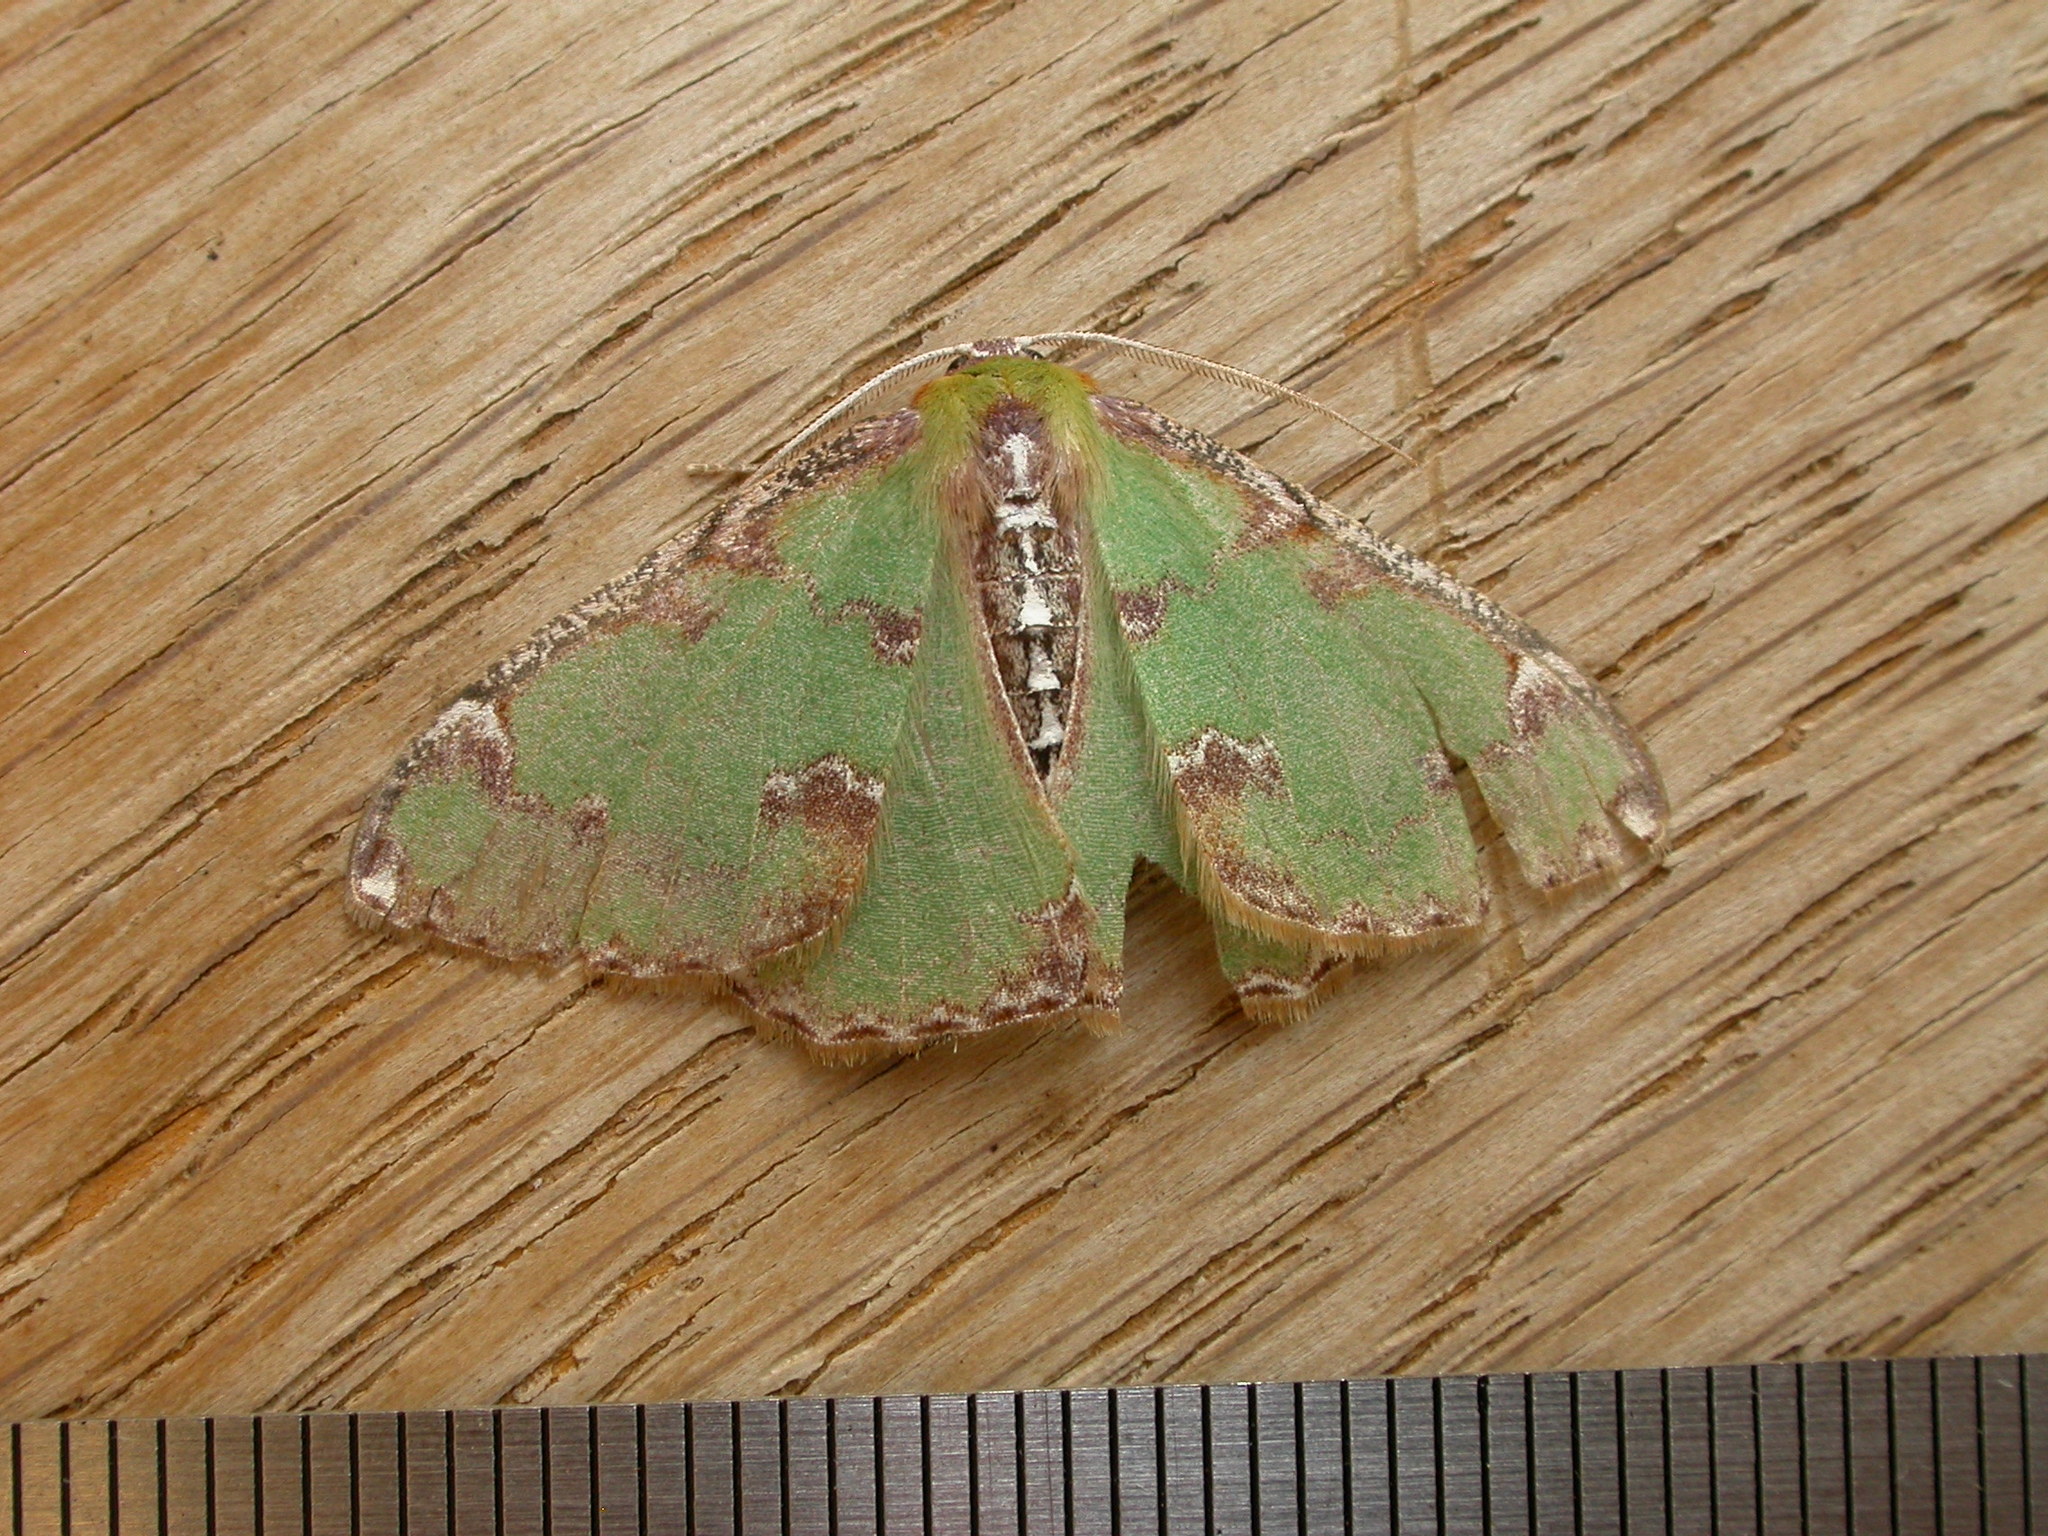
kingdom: Animalia
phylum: Arthropoda
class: Insecta
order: Lepidoptera
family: Geometridae
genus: Eucyclodes
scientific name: Eucyclodes buprestaria
